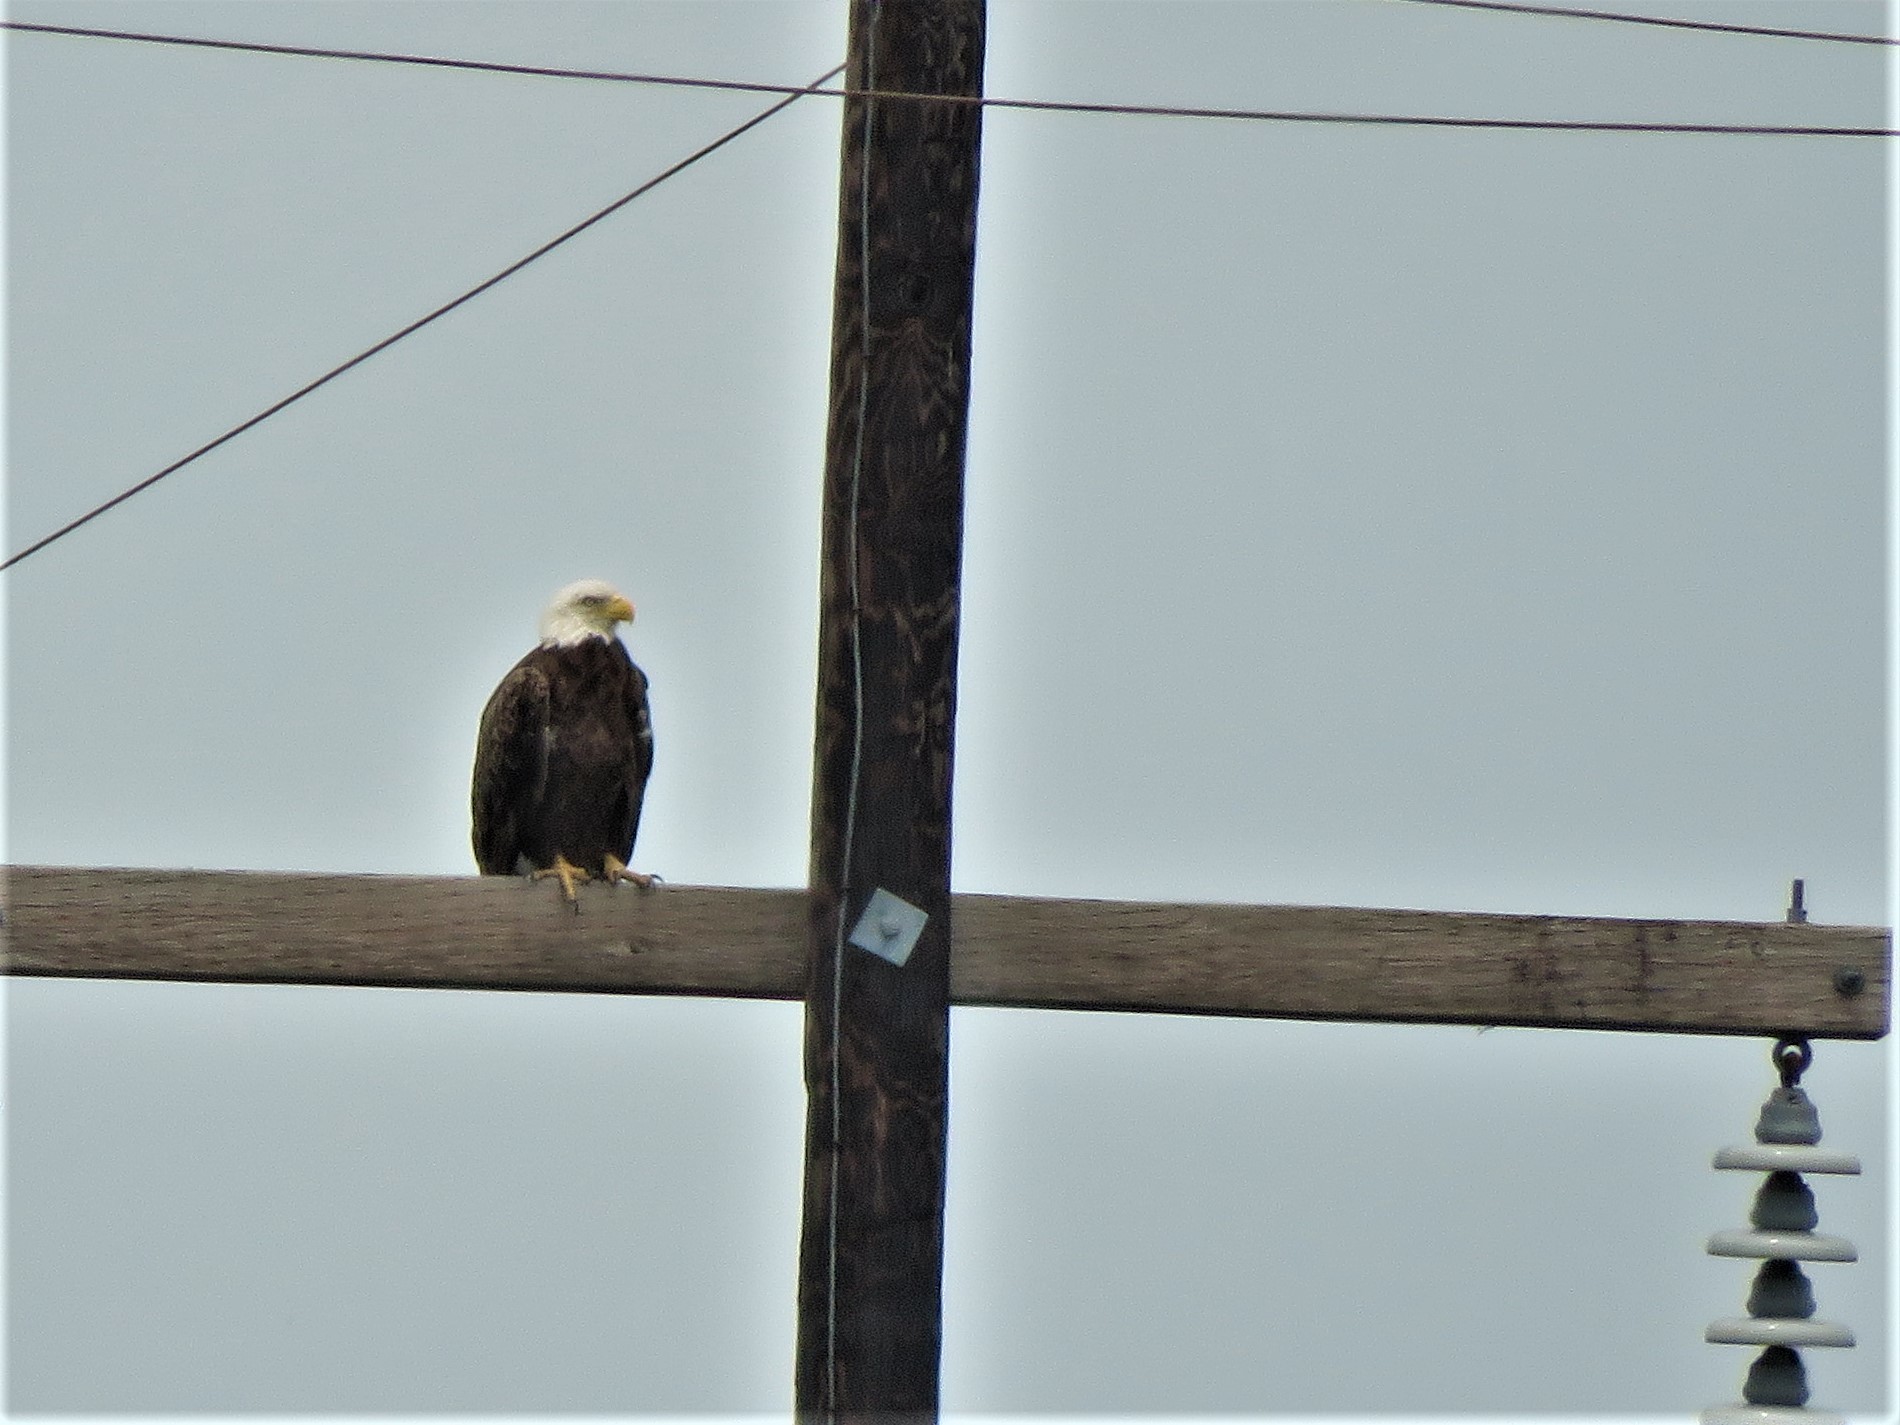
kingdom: Animalia
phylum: Chordata
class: Aves
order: Accipitriformes
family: Accipitridae
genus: Haliaeetus
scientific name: Haliaeetus leucocephalus
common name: Bald eagle
